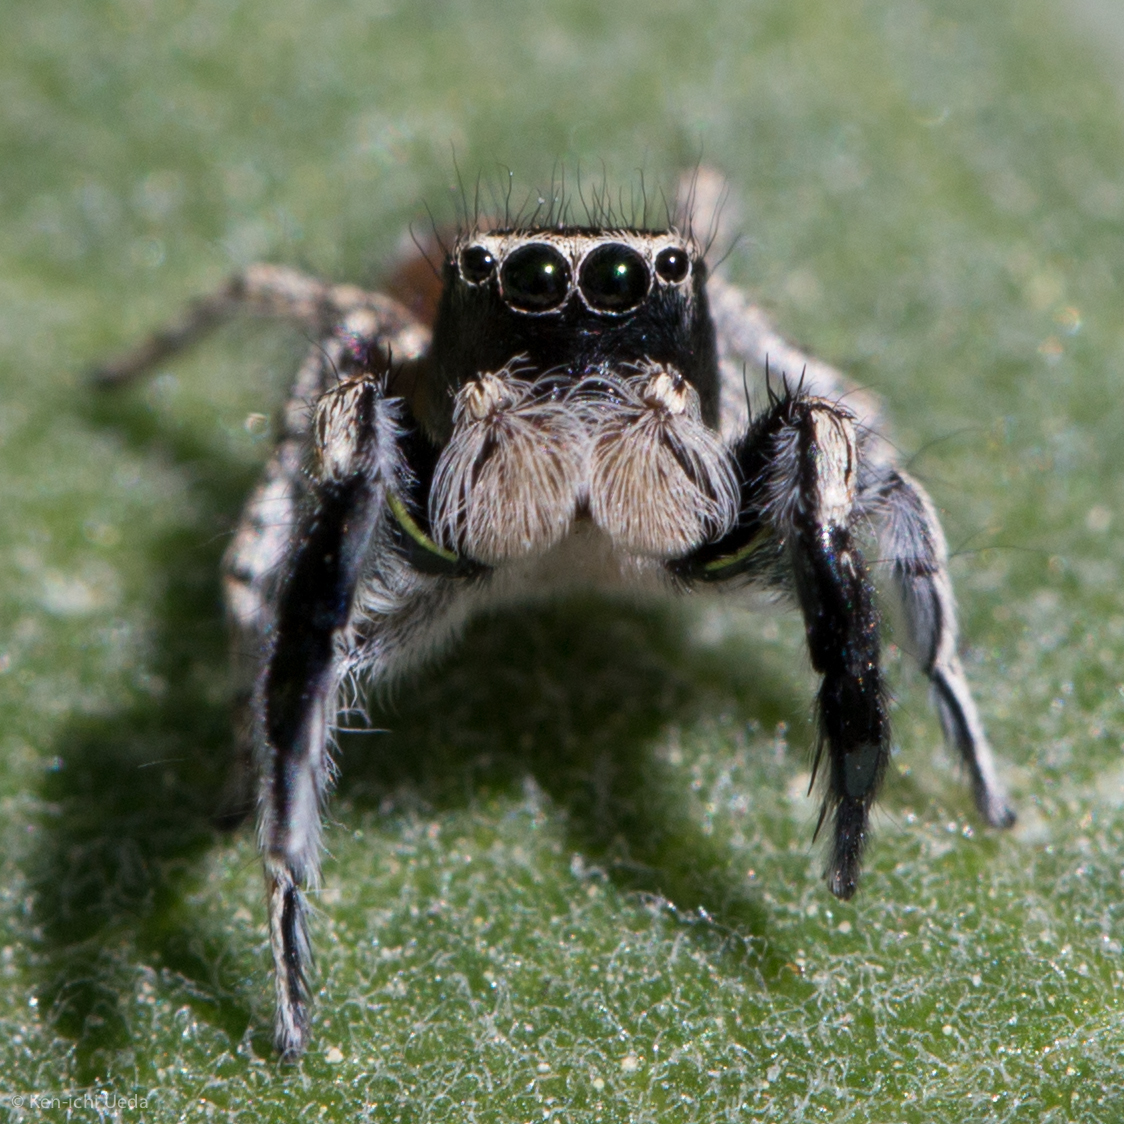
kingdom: Animalia
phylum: Arthropoda
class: Arachnida
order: Araneae
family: Salticidae
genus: Habronattus
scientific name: Habronattus hirsutus
